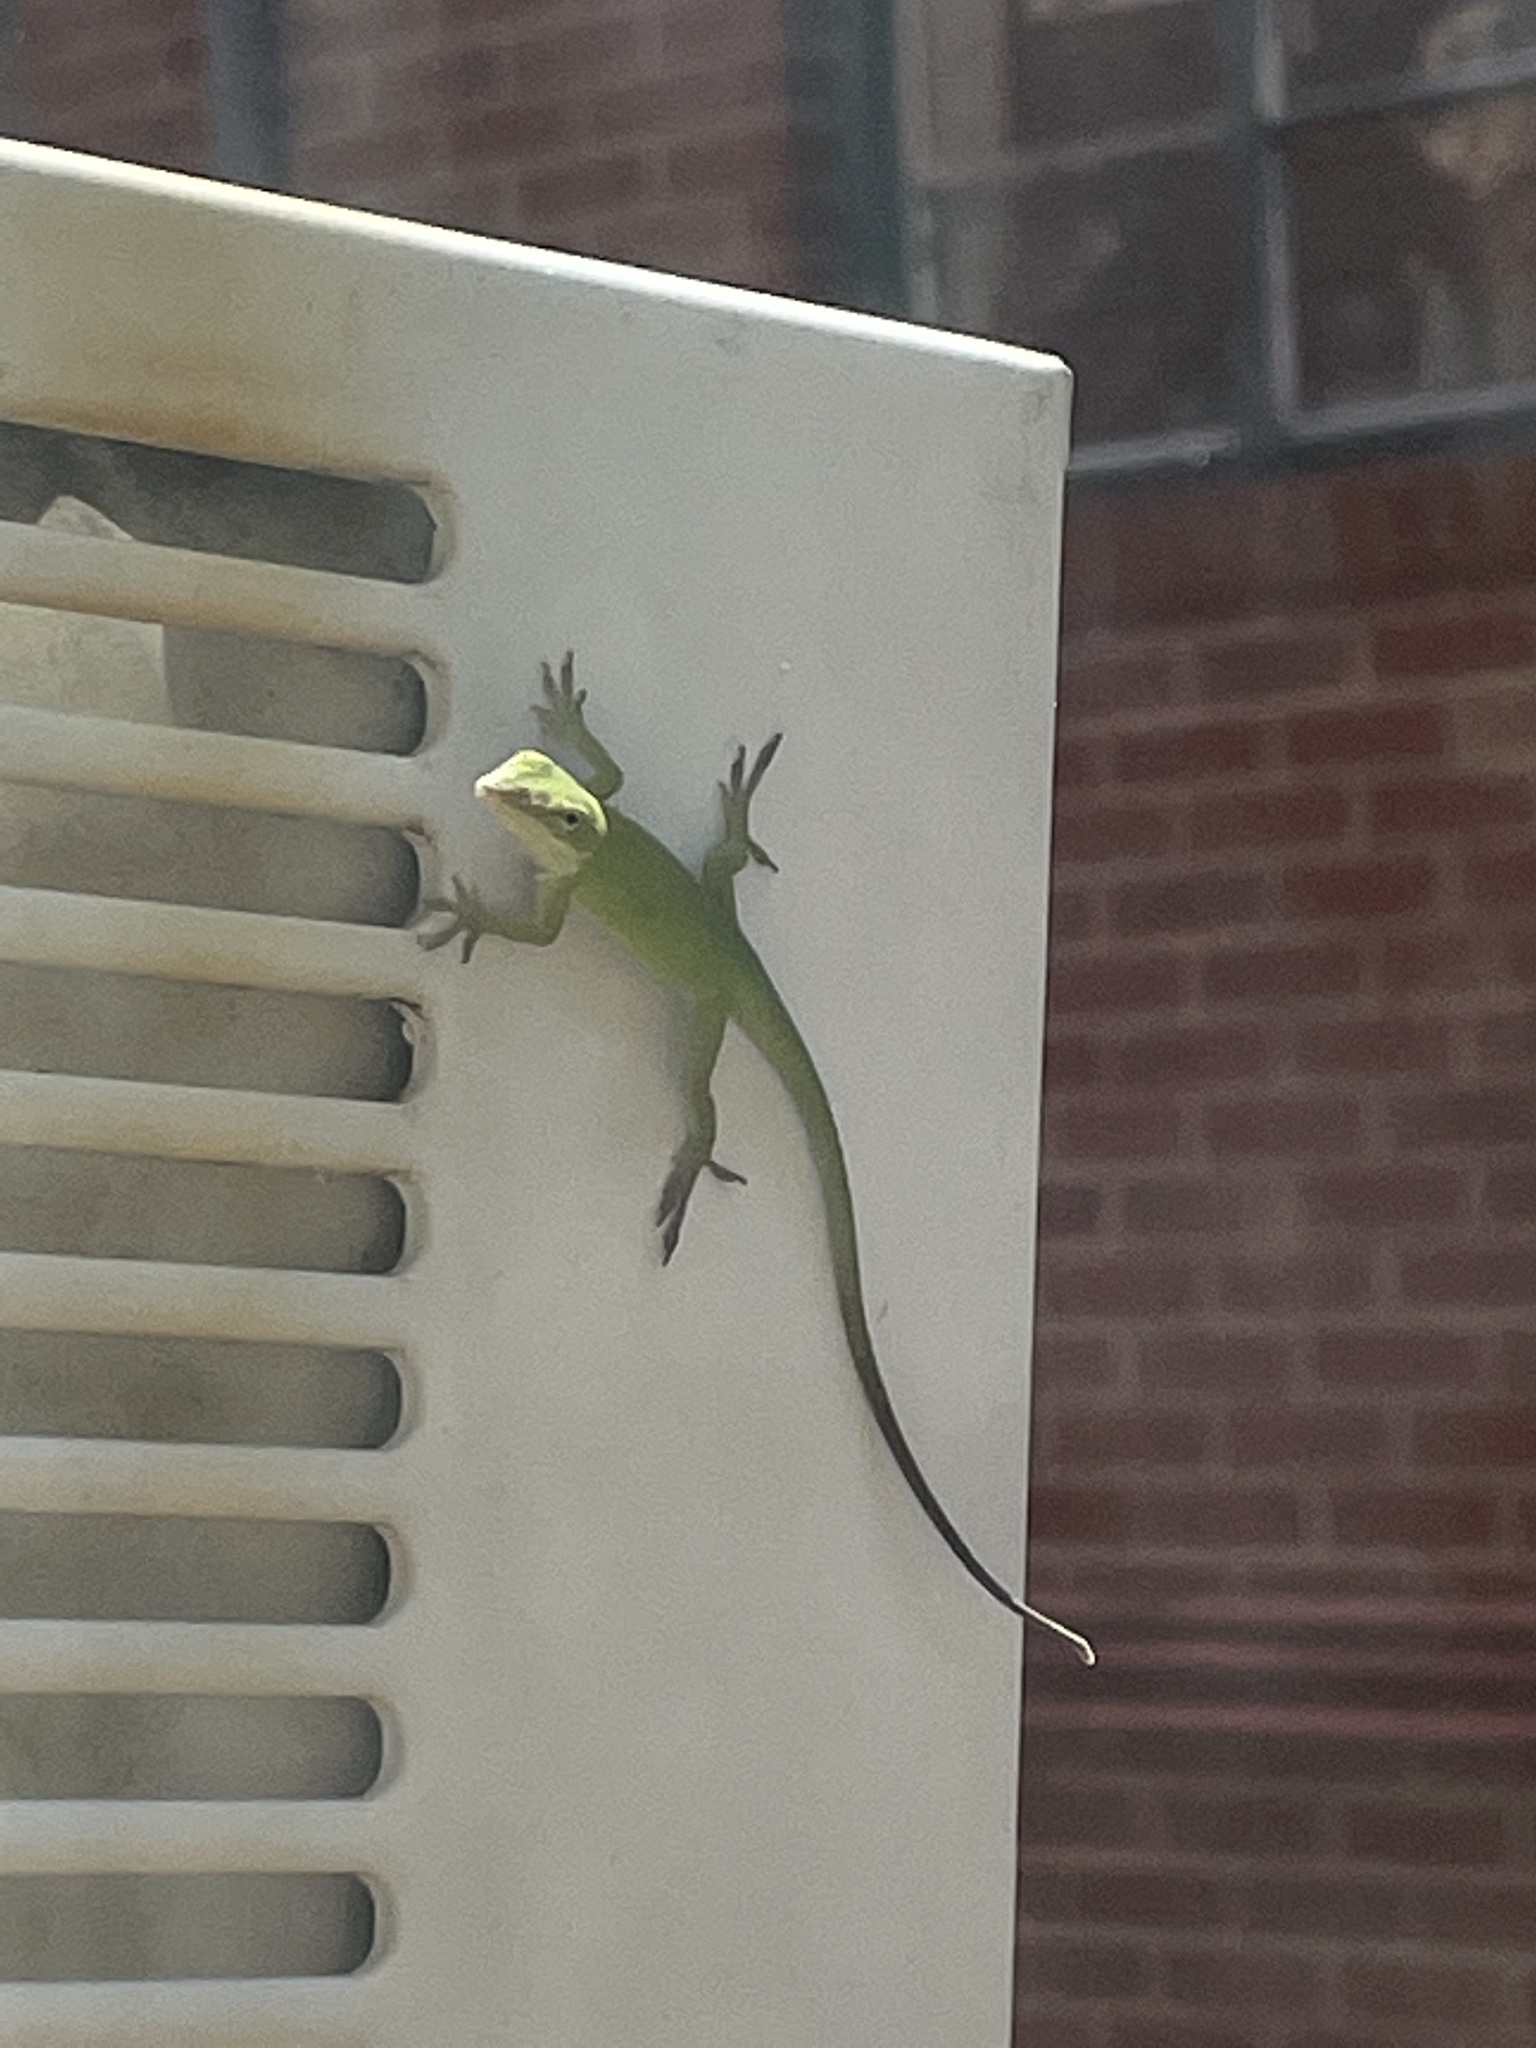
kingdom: Animalia
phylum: Chordata
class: Squamata
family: Dactyloidae
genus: Anolis
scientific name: Anolis carolinensis
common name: Green anole
